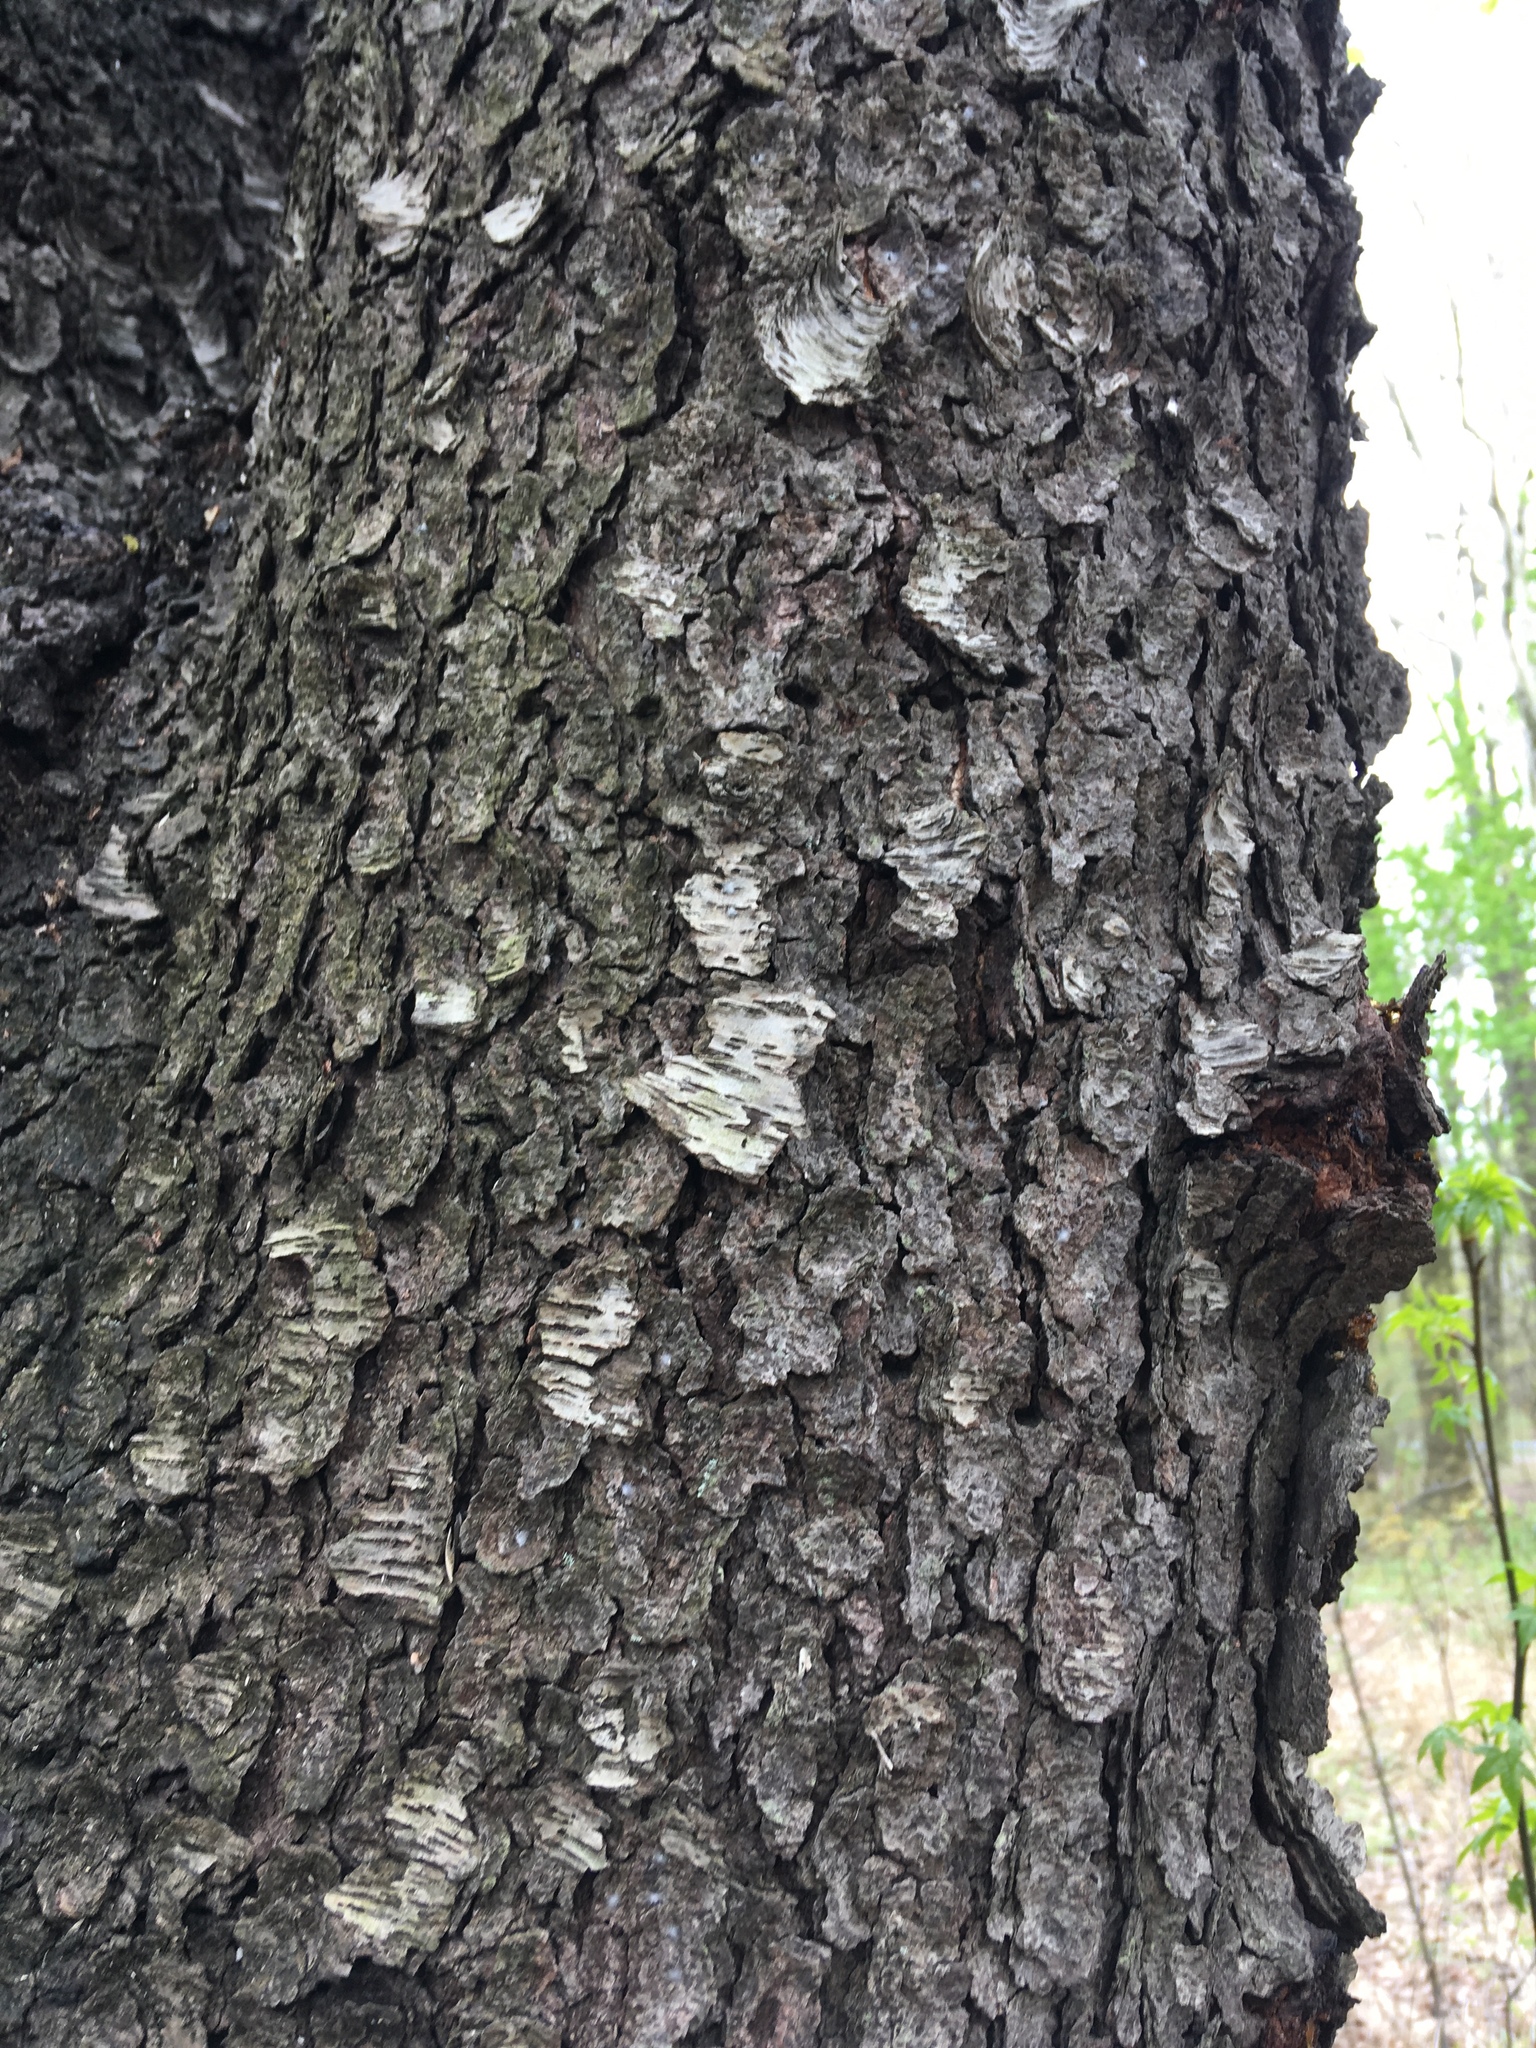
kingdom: Plantae
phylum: Tracheophyta
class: Magnoliopsida
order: Rosales
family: Rosaceae
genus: Prunus
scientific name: Prunus serotina
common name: Black cherry
